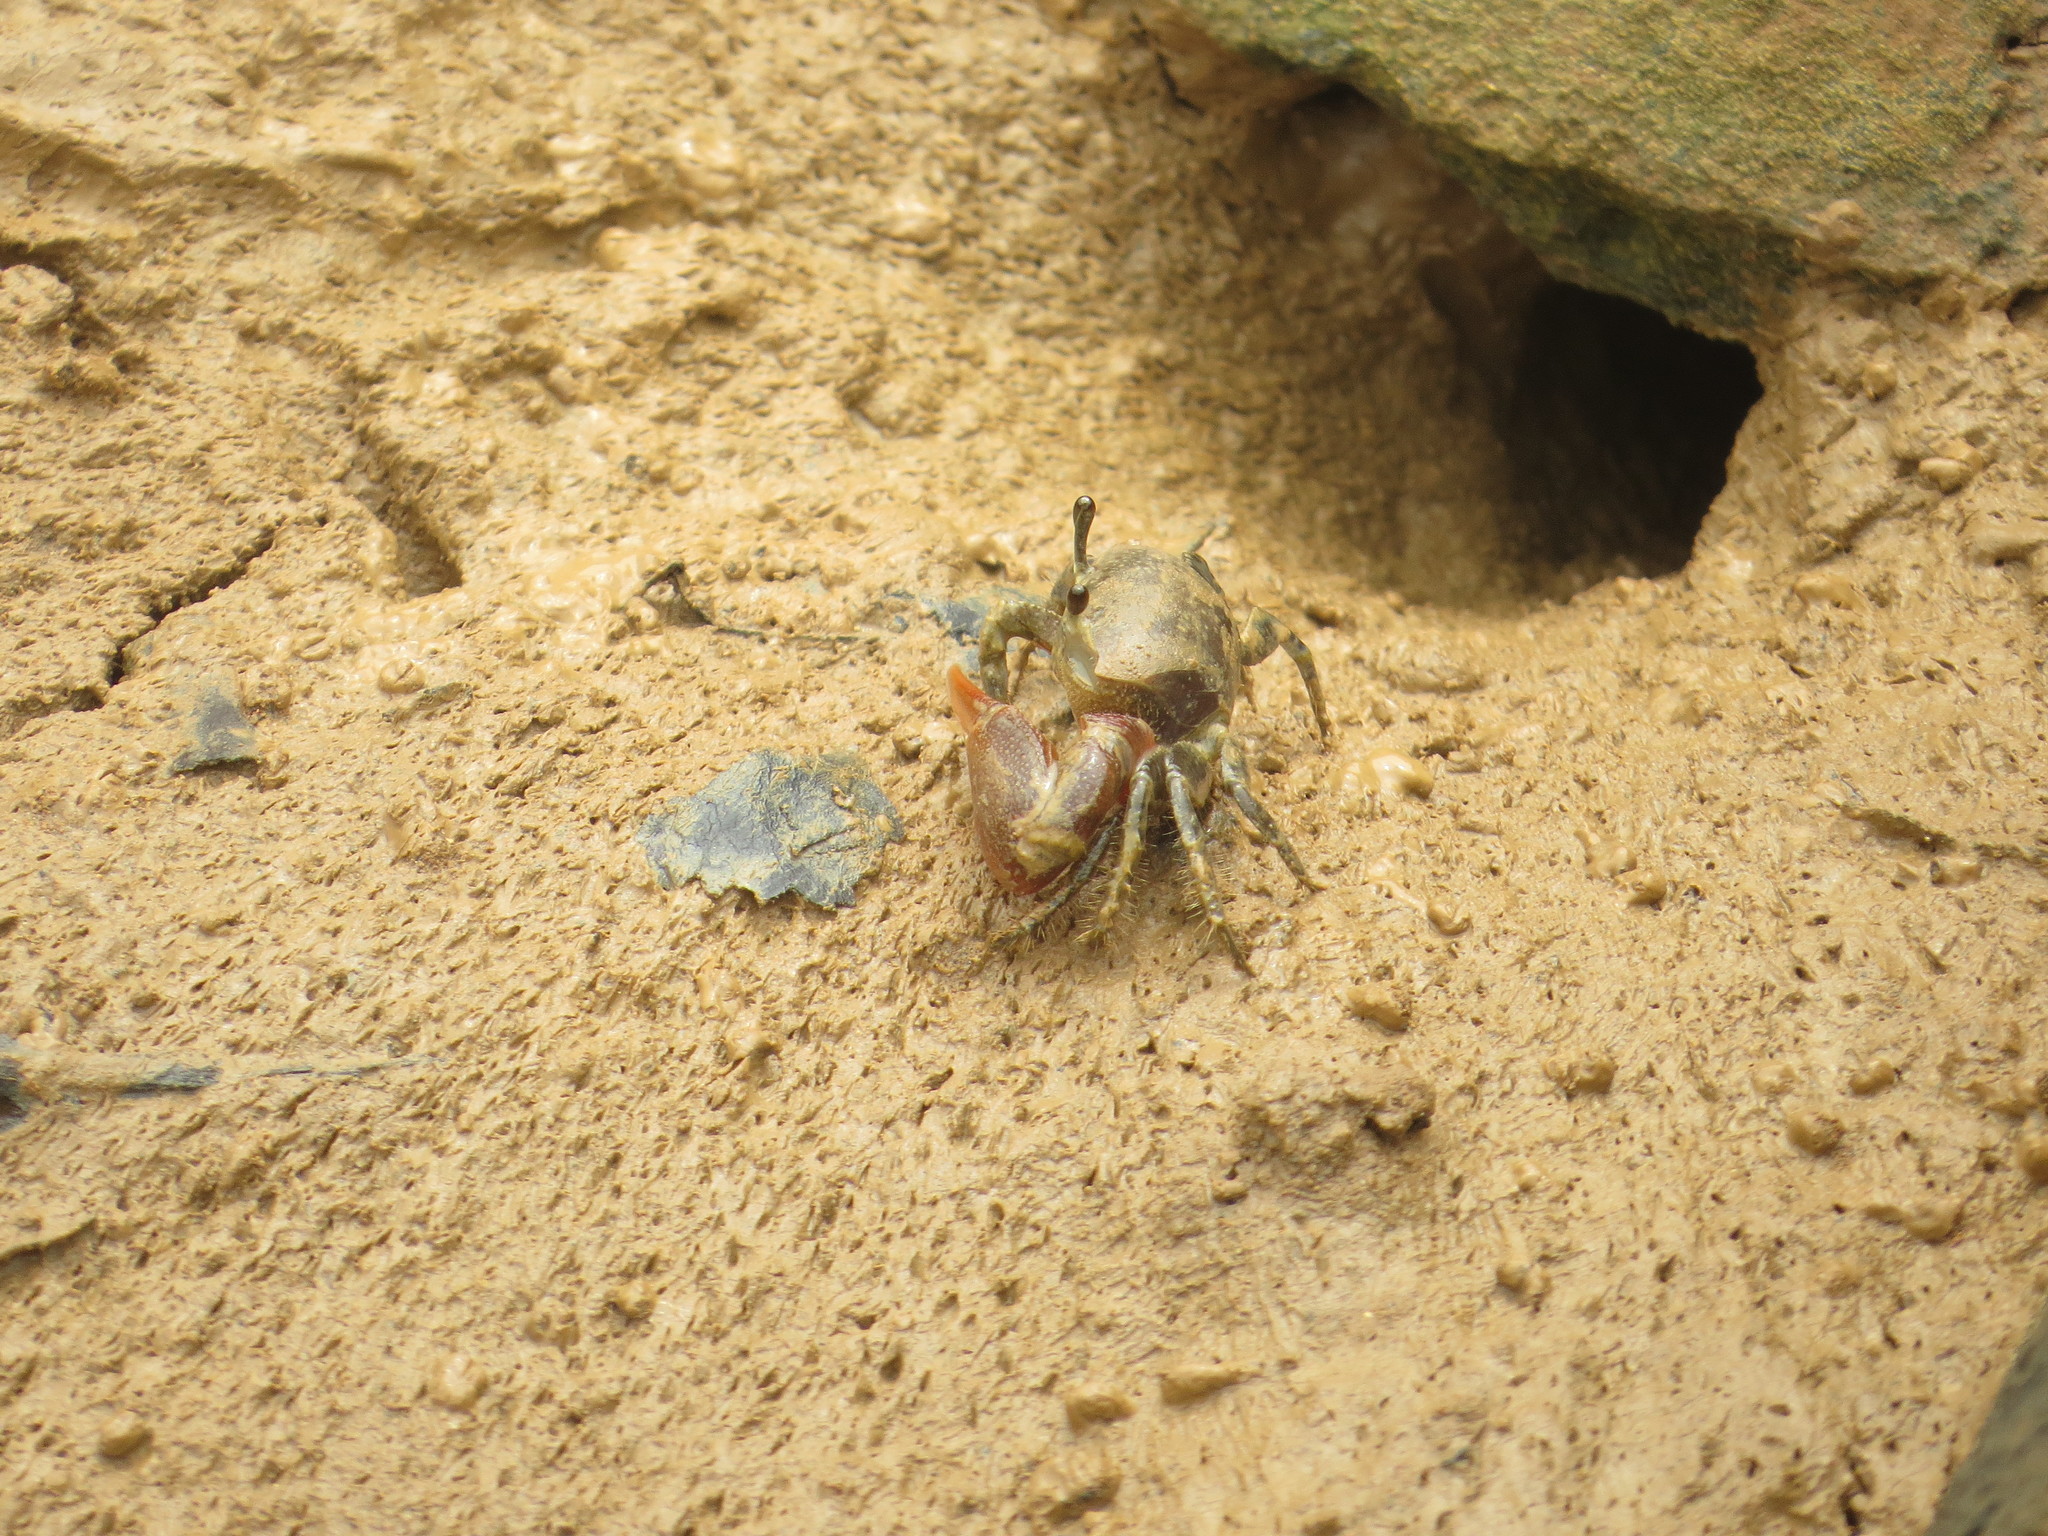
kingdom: Animalia
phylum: Arthropoda
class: Malacostraca
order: Decapoda
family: Ocypodidae
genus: Minuca
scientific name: Minuca galapagensis
